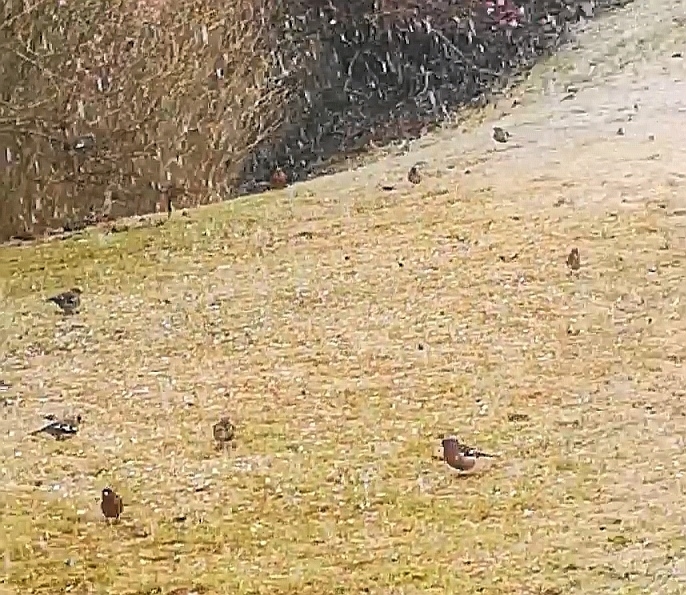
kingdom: Animalia
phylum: Chordata
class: Aves
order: Passeriformes
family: Fringillidae
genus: Fringilla
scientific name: Fringilla coelebs
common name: Common chaffinch
